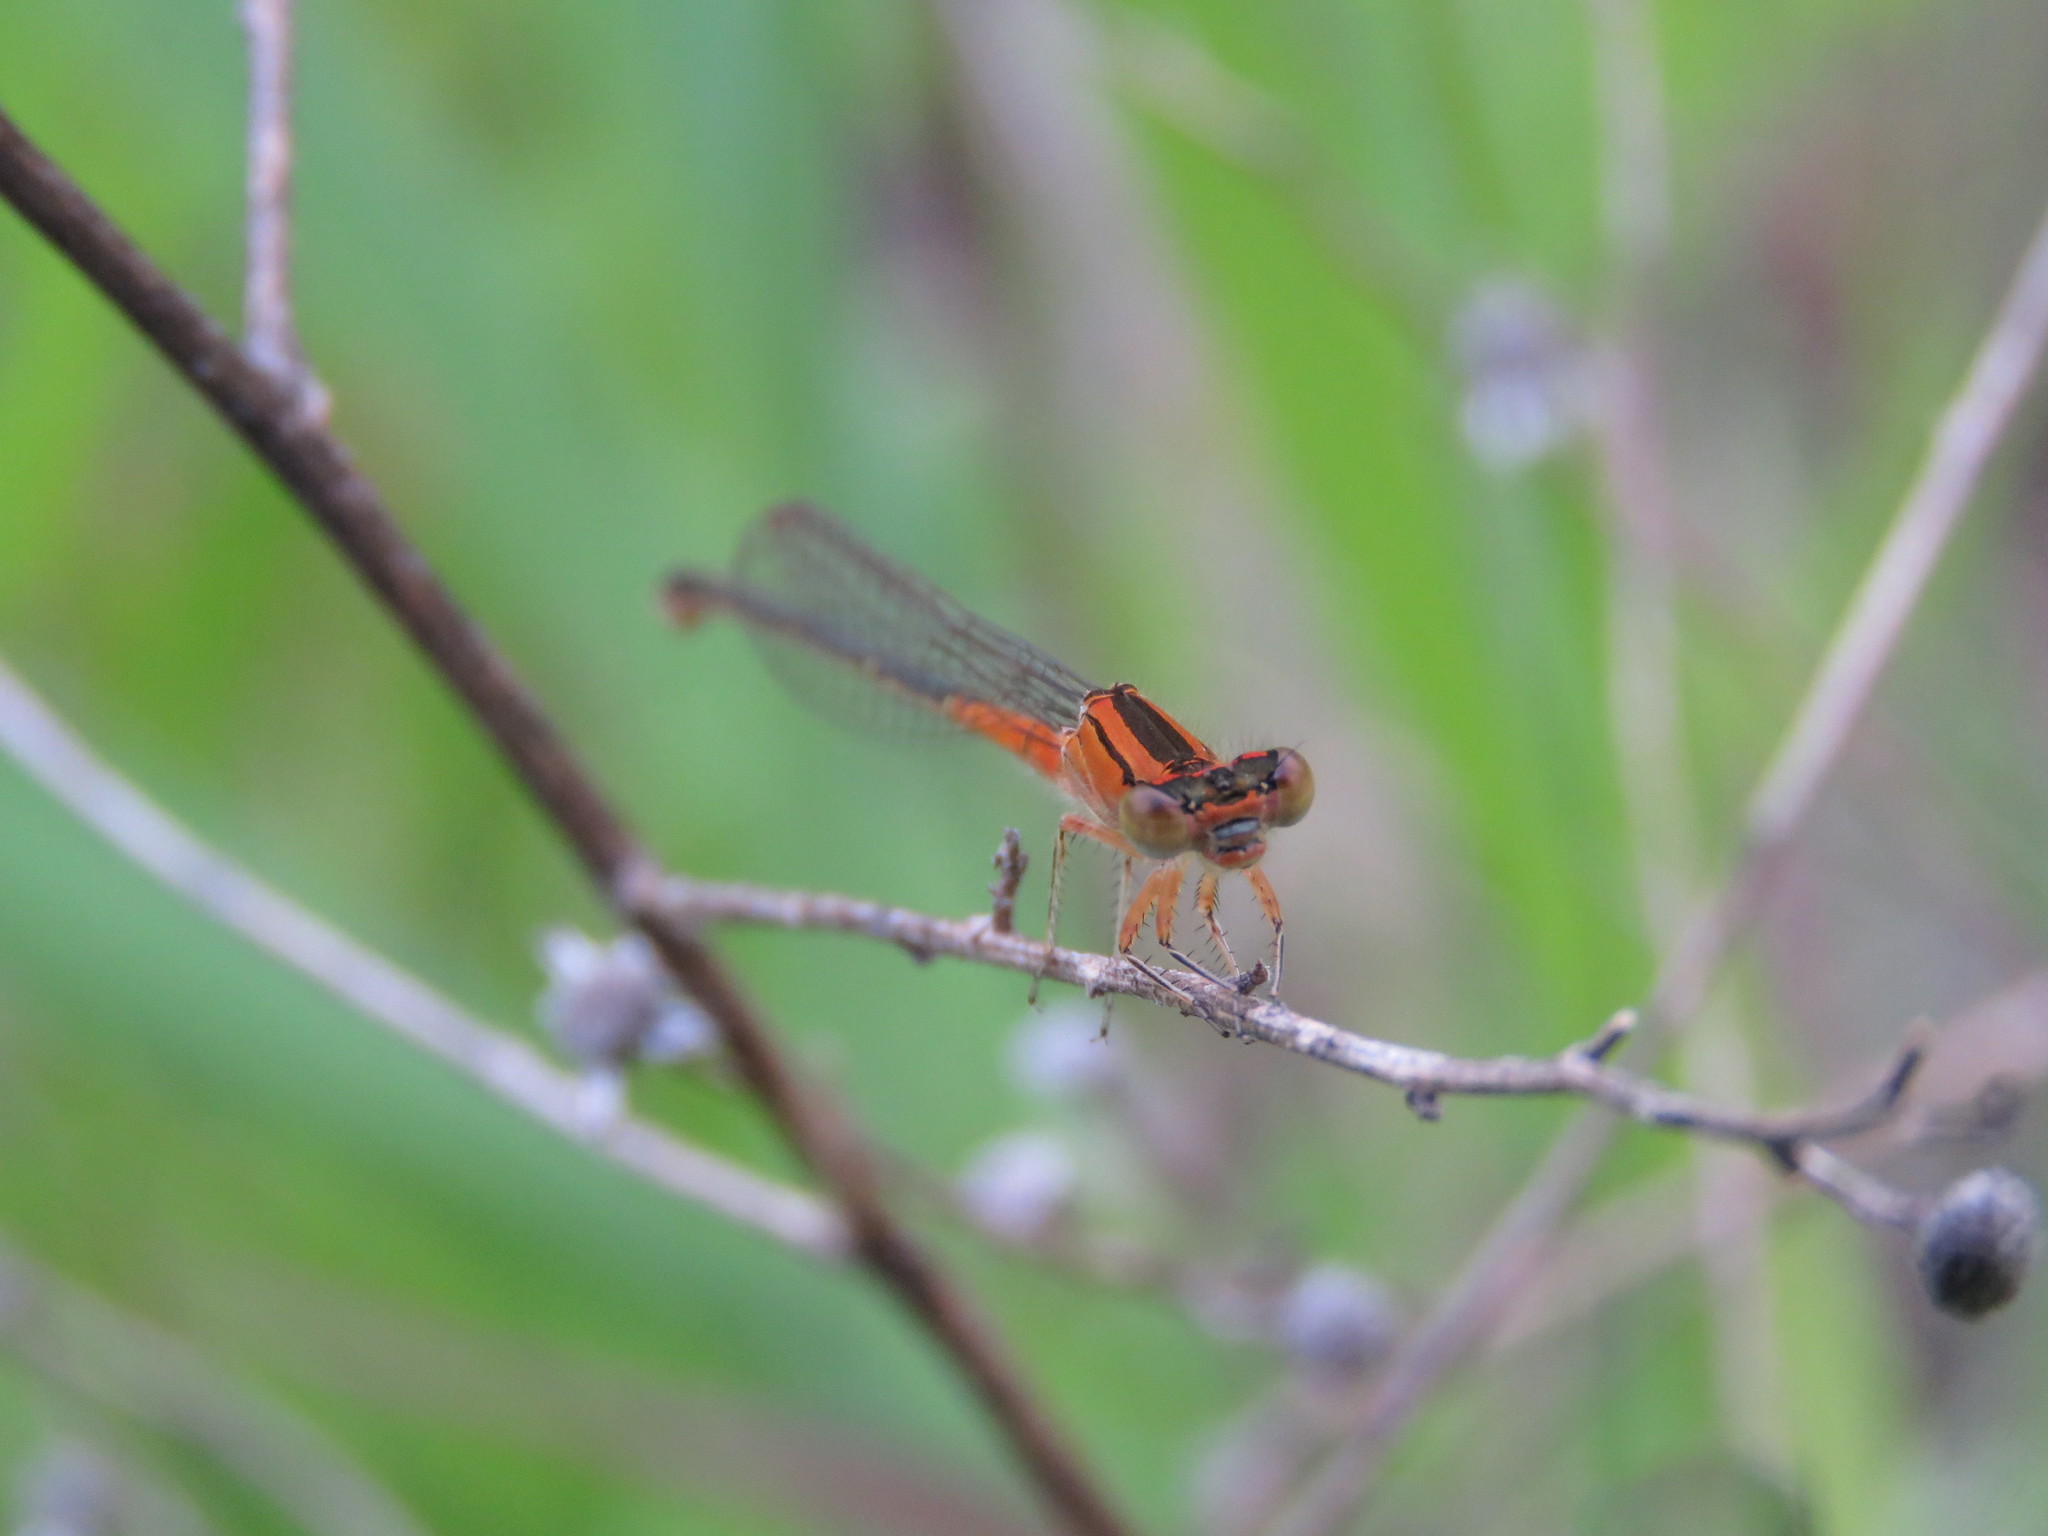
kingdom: Animalia
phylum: Arthropoda
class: Insecta
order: Odonata
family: Coenagrionidae
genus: Ischnura
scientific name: Ischnura verticalis
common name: Eastern forktail
